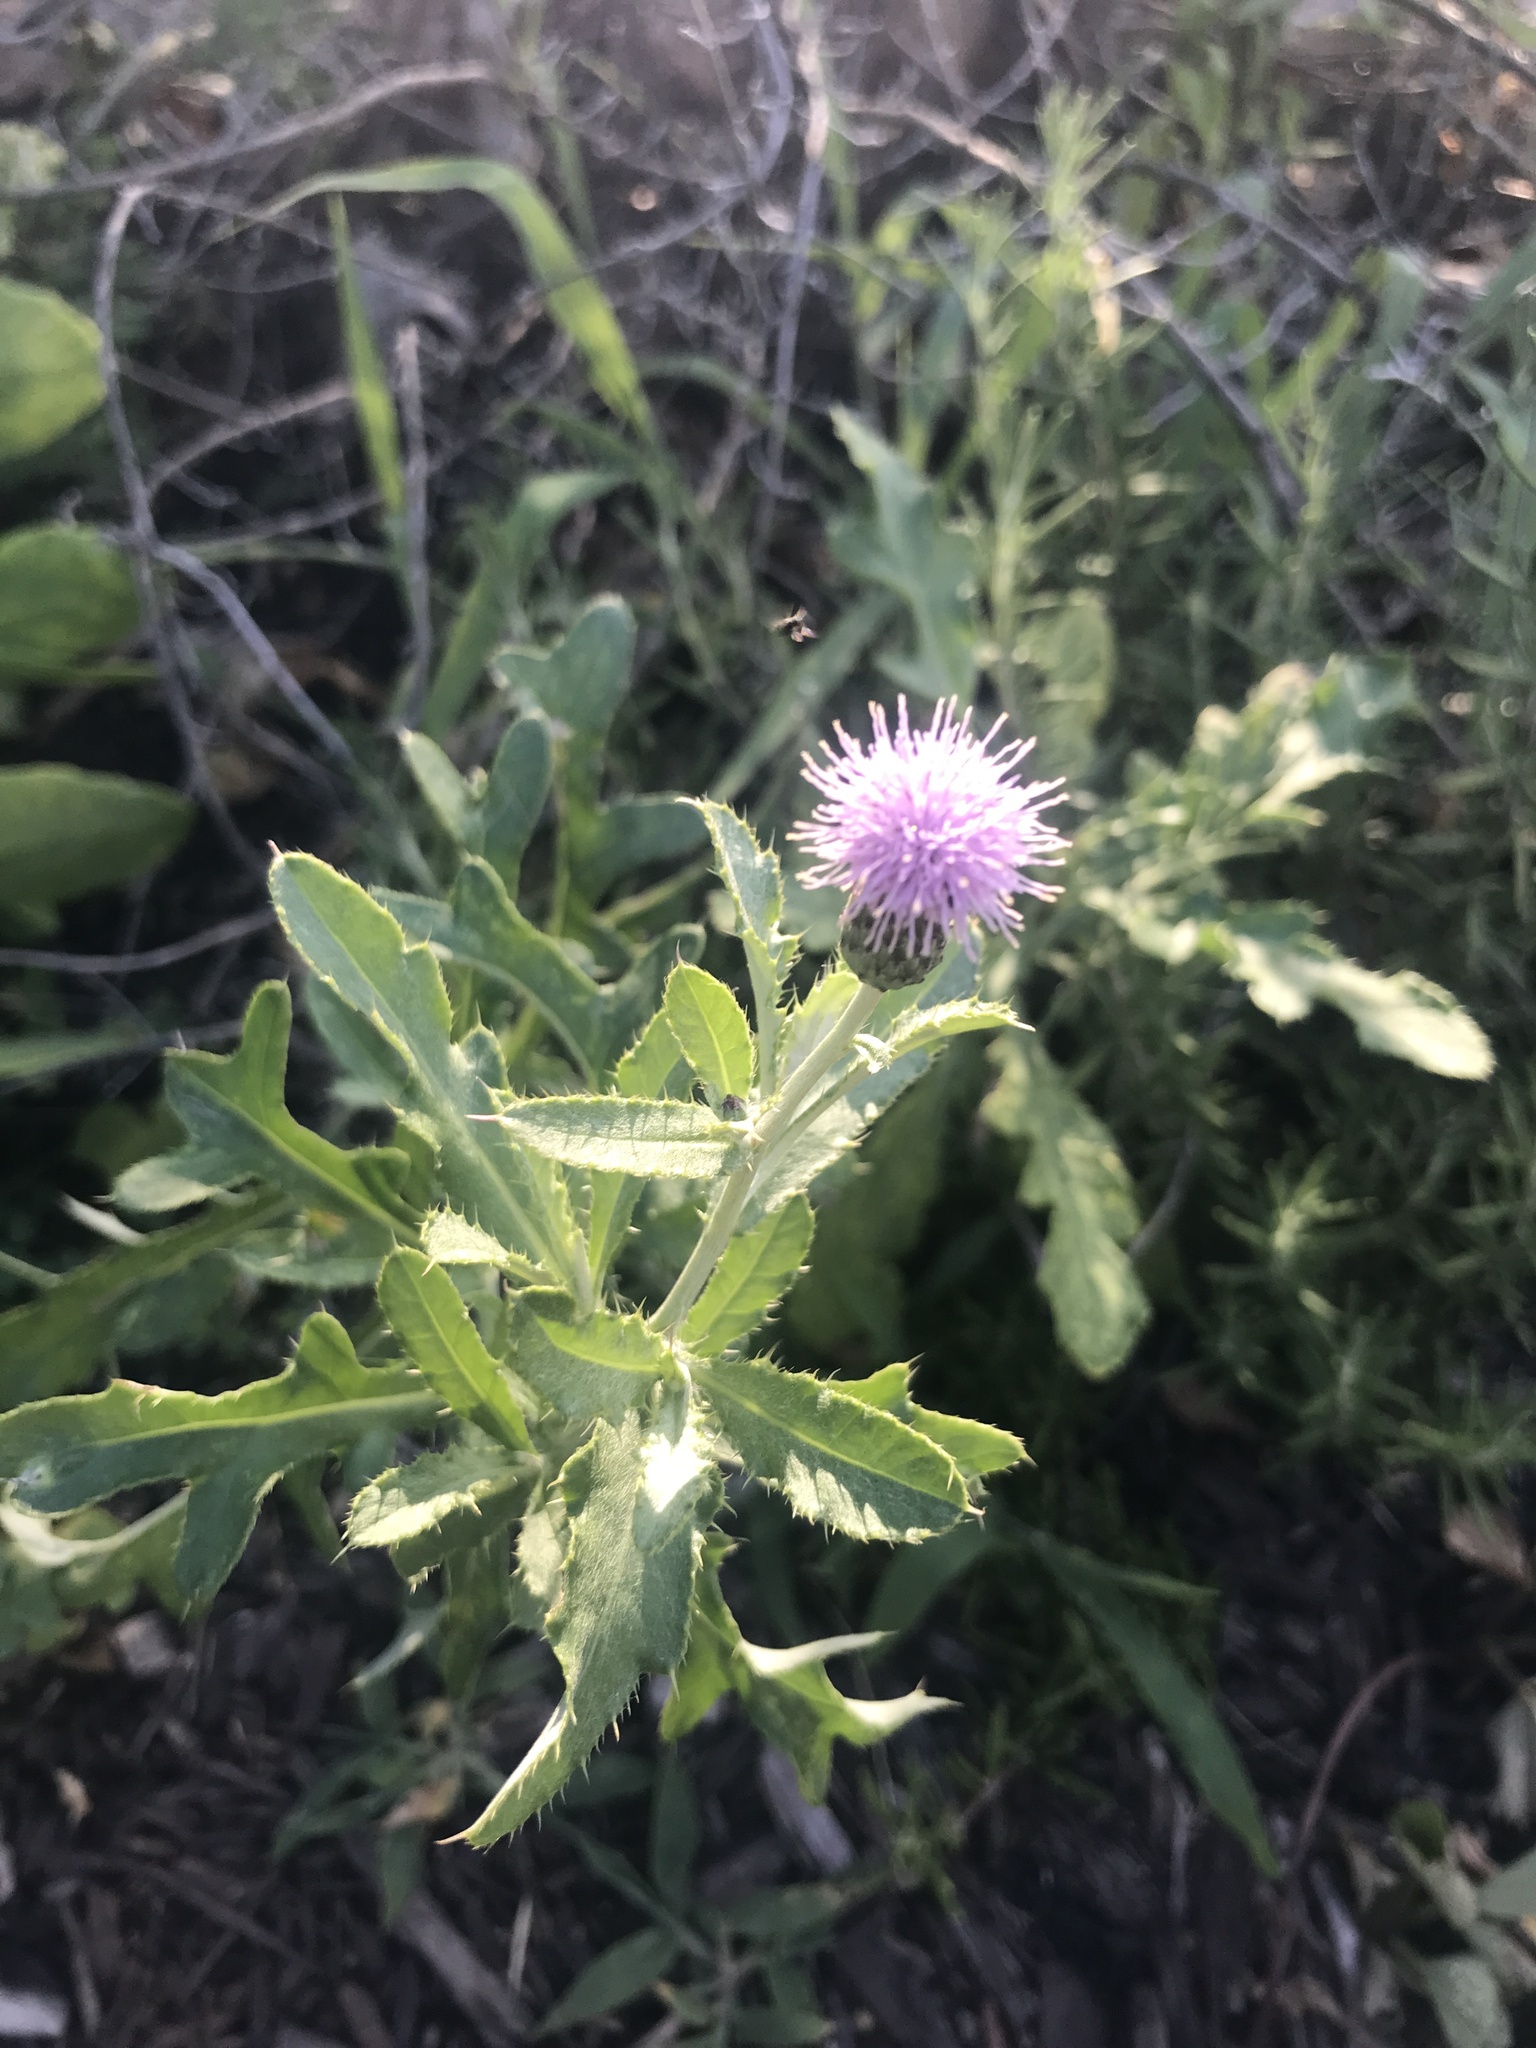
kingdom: Plantae
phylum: Tracheophyta
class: Magnoliopsida
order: Asterales
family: Asteraceae
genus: Cirsium
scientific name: Cirsium arvense
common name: Creeping thistle
